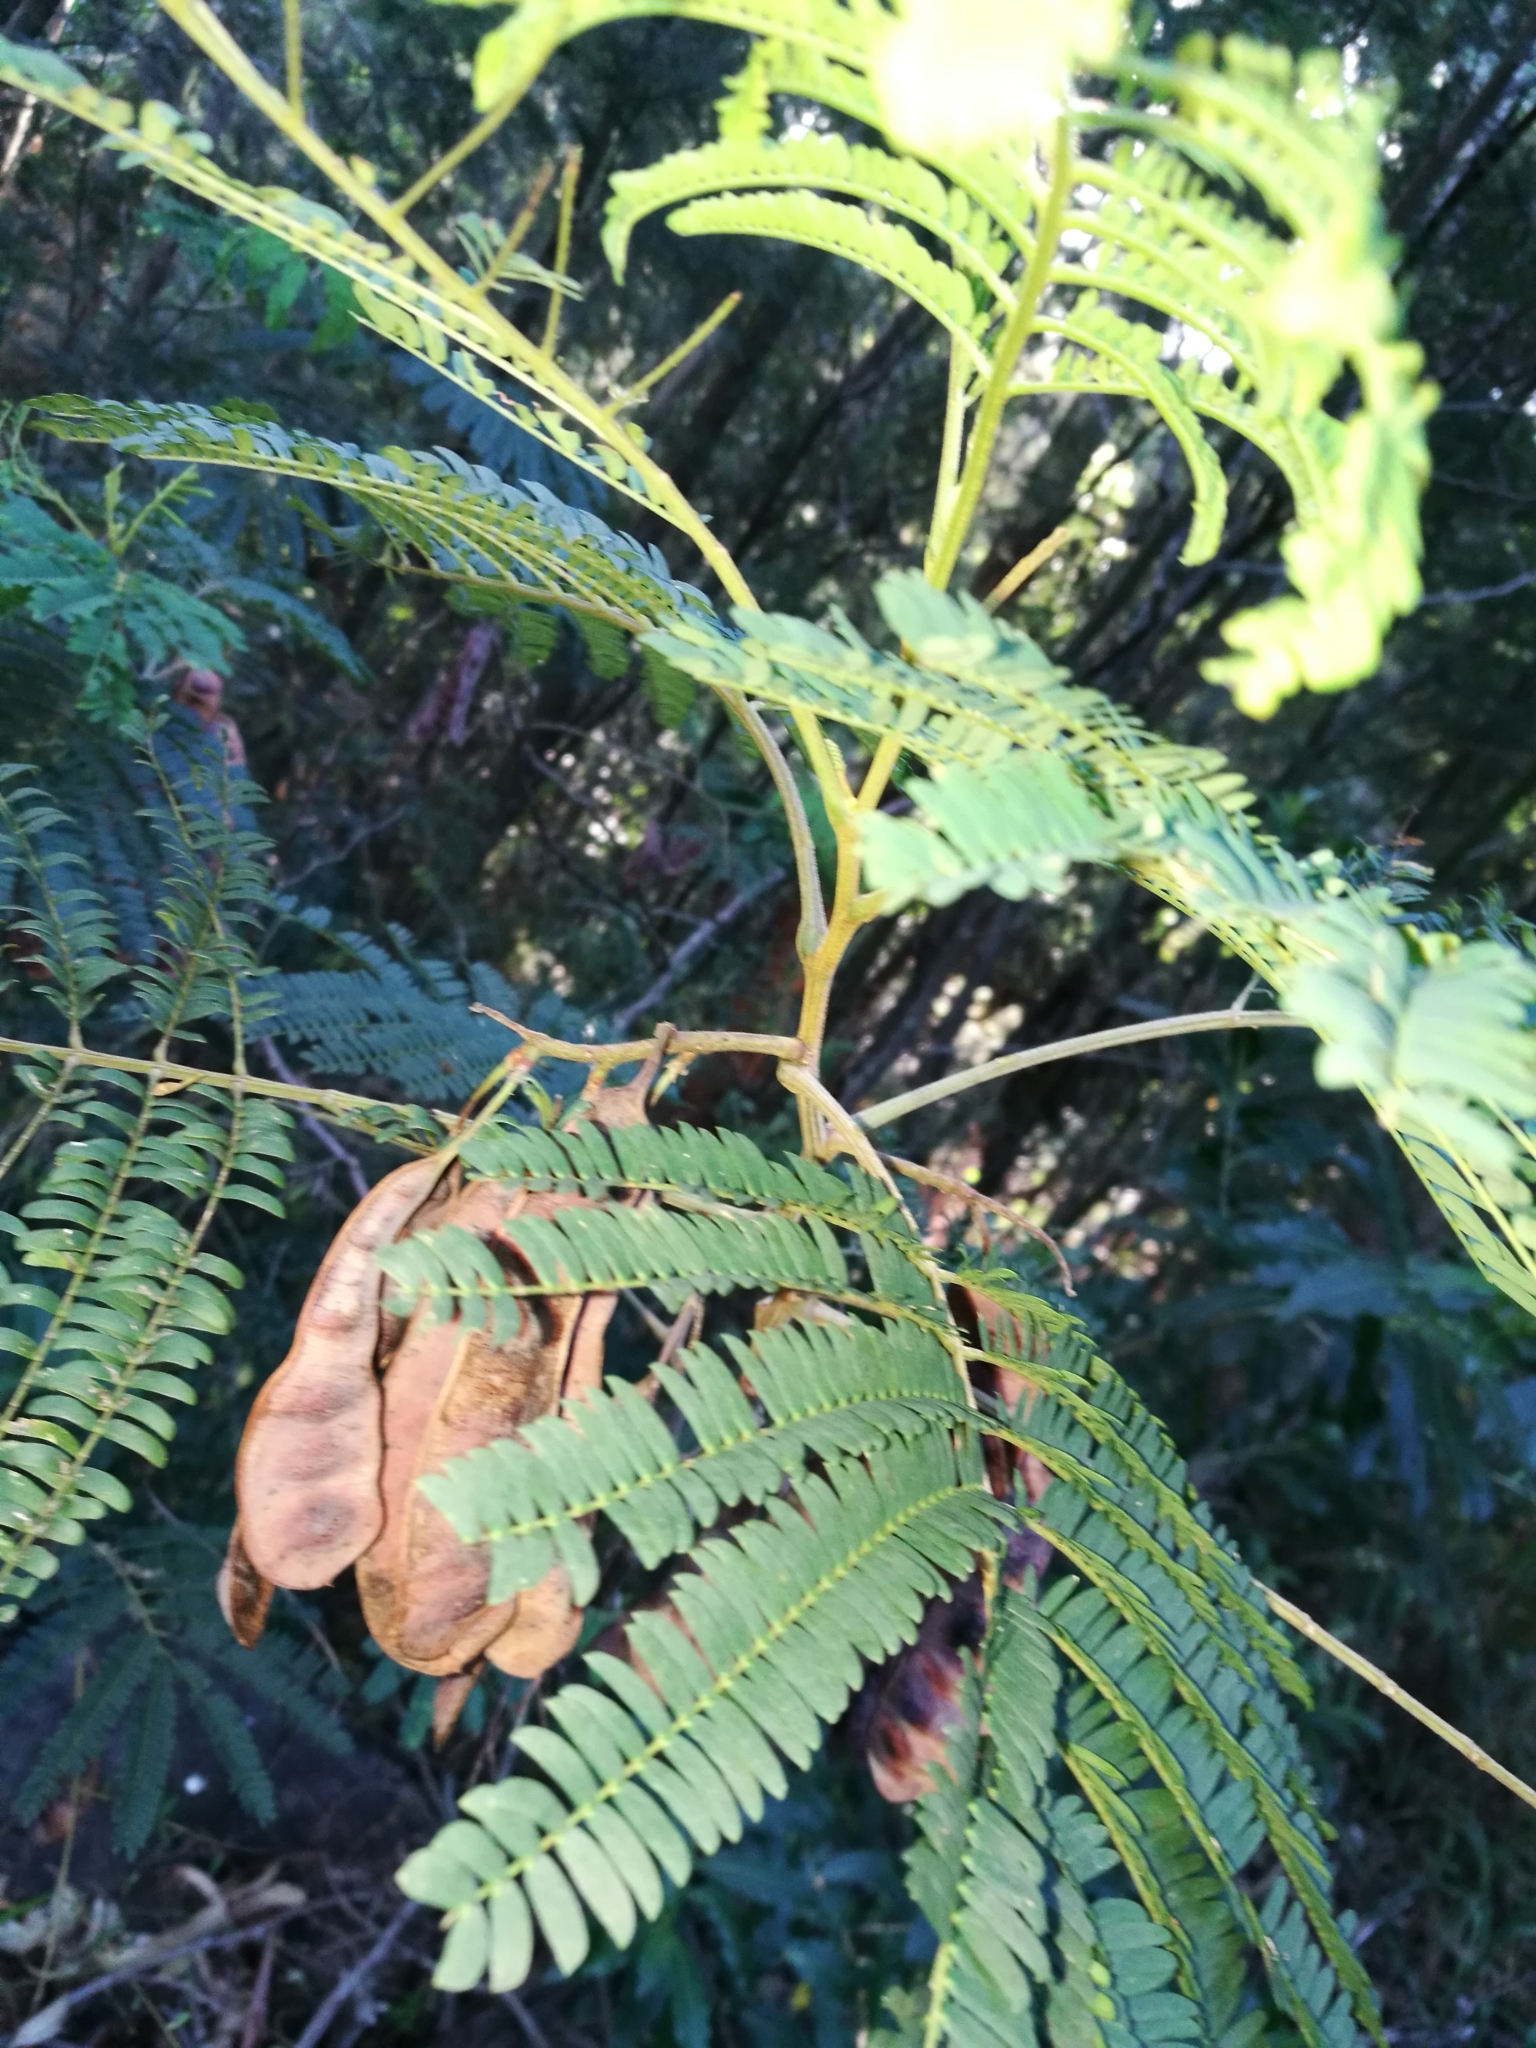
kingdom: Plantae
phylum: Tracheophyta
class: Magnoliopsida
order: Fabales
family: Fabaceae
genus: Paraserianthes
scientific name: Paraserianthes lophantha
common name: Plume albizia
